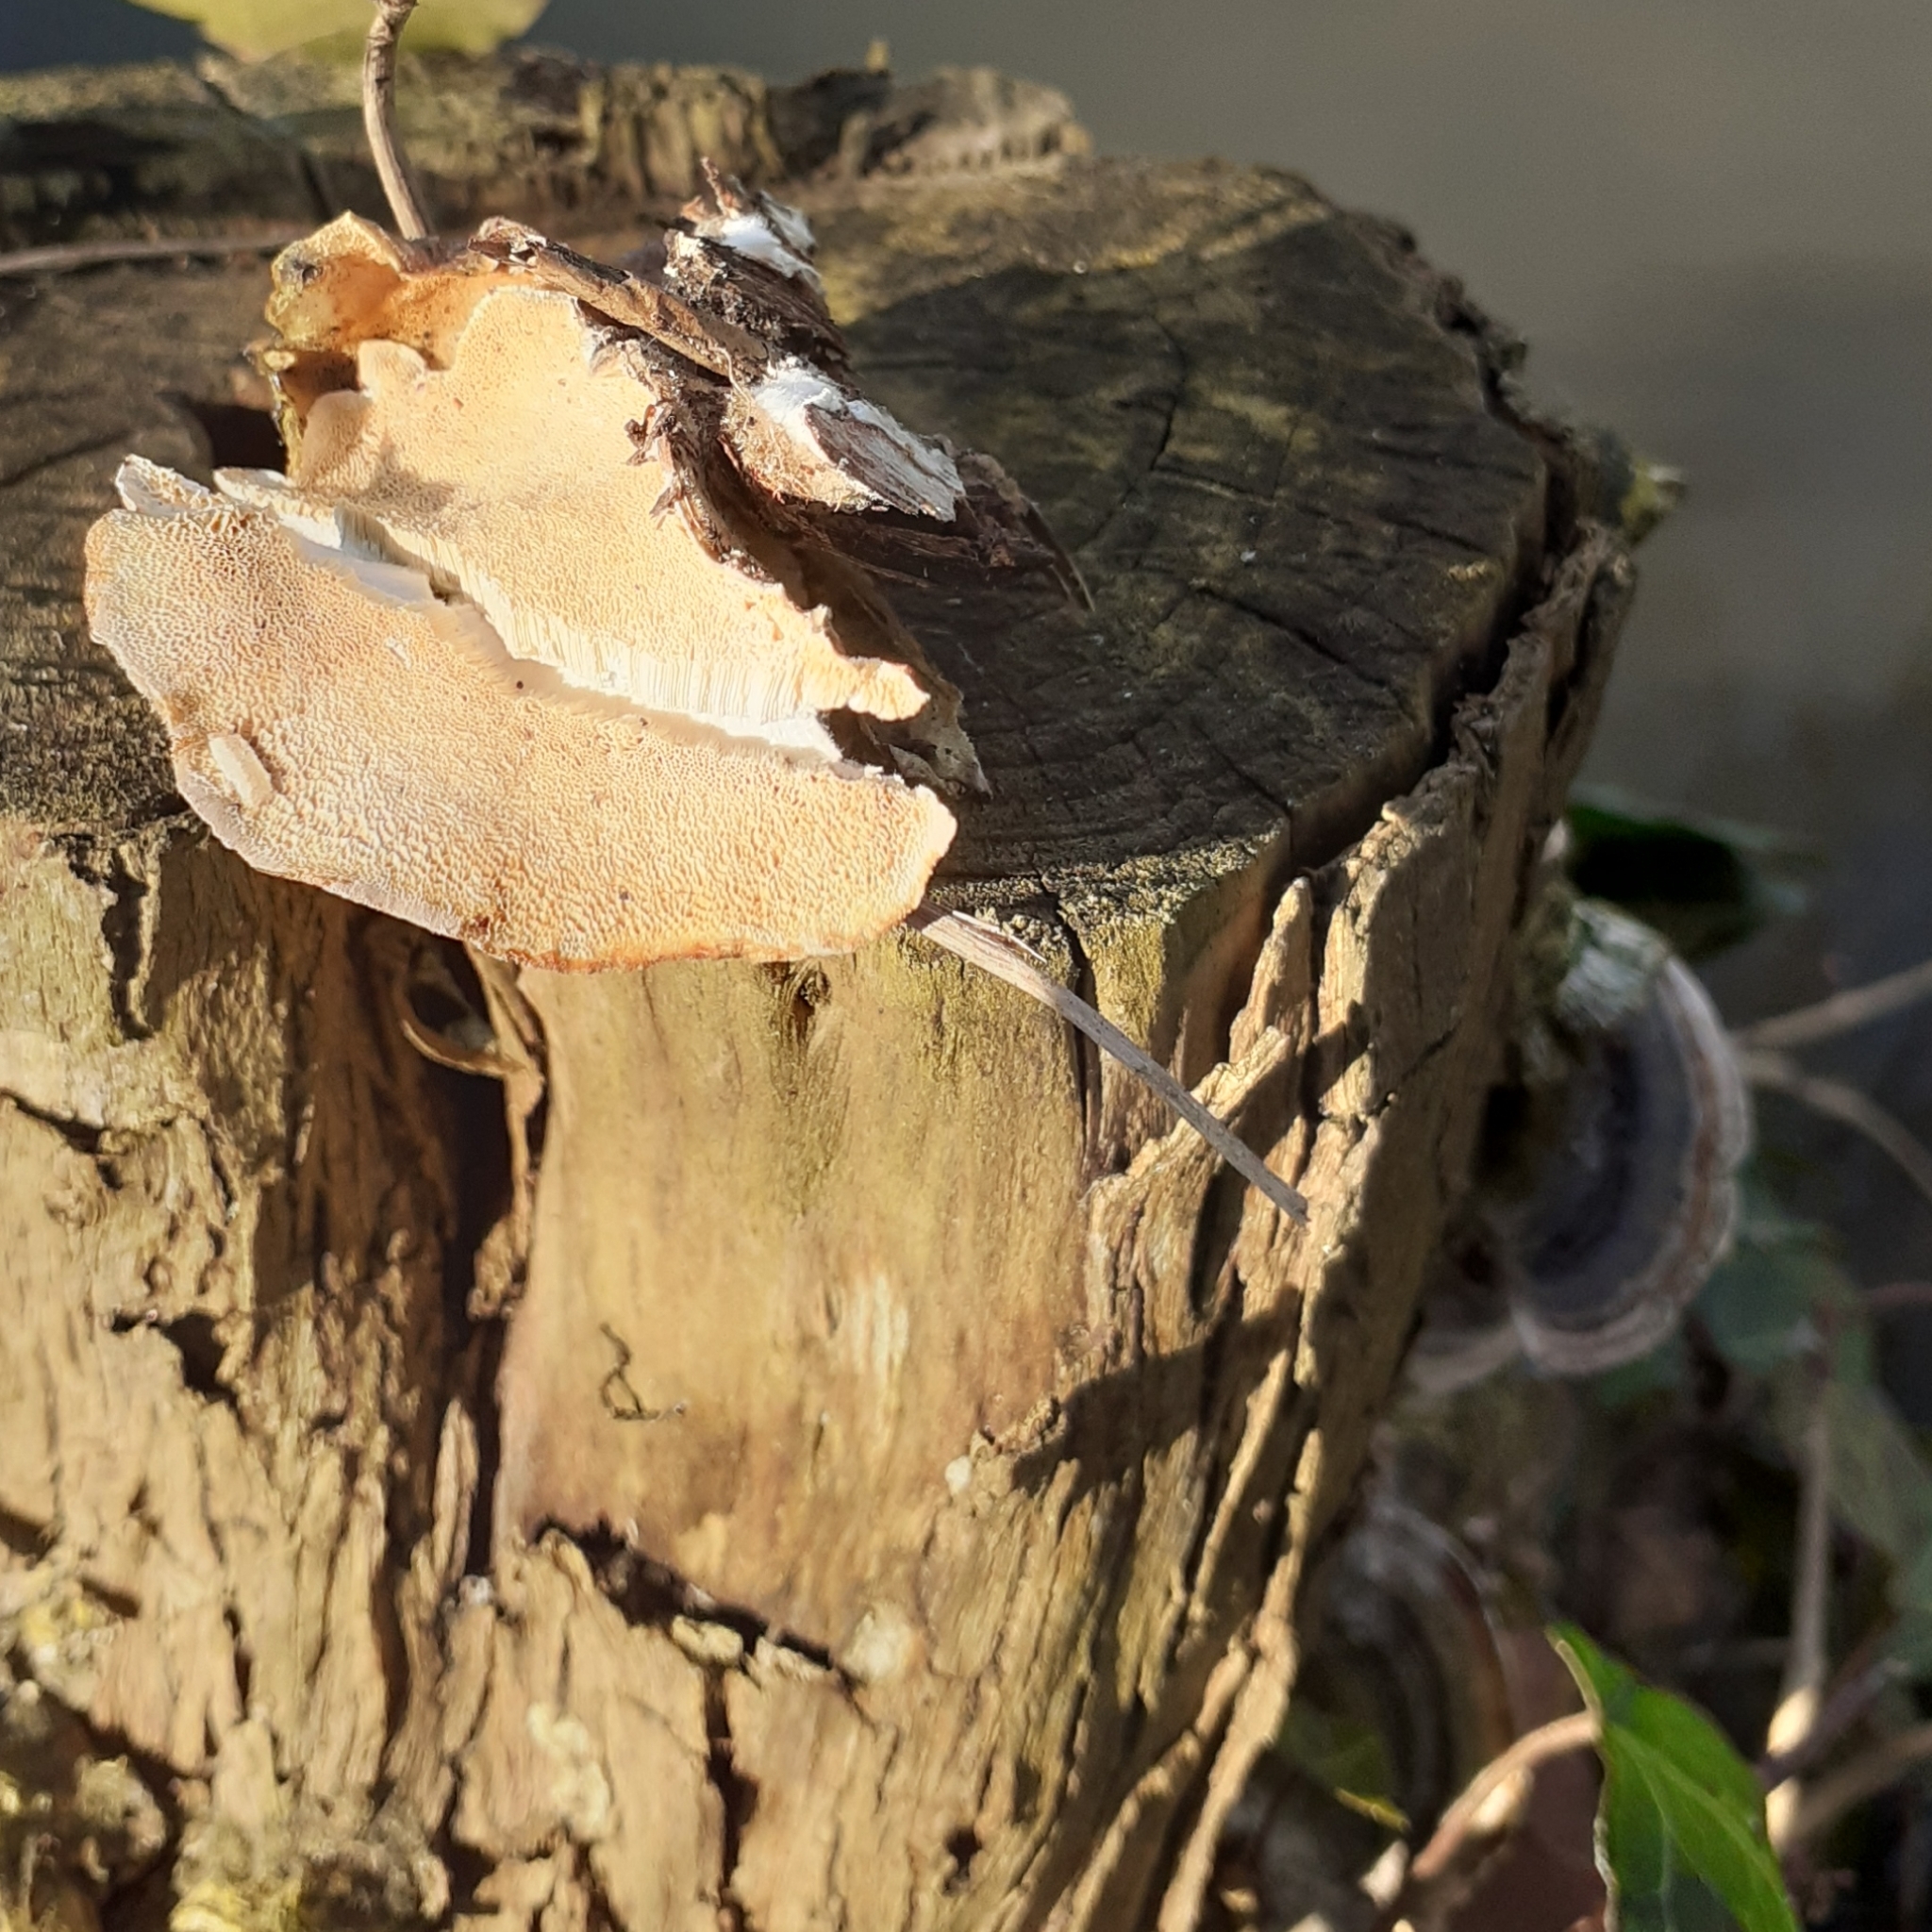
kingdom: Fungi
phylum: Basidiomycota
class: Agaricomycetes
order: Polyporales
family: Polyporaceae
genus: Trametes
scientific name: Trametes versicolor
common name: Turkeytail
